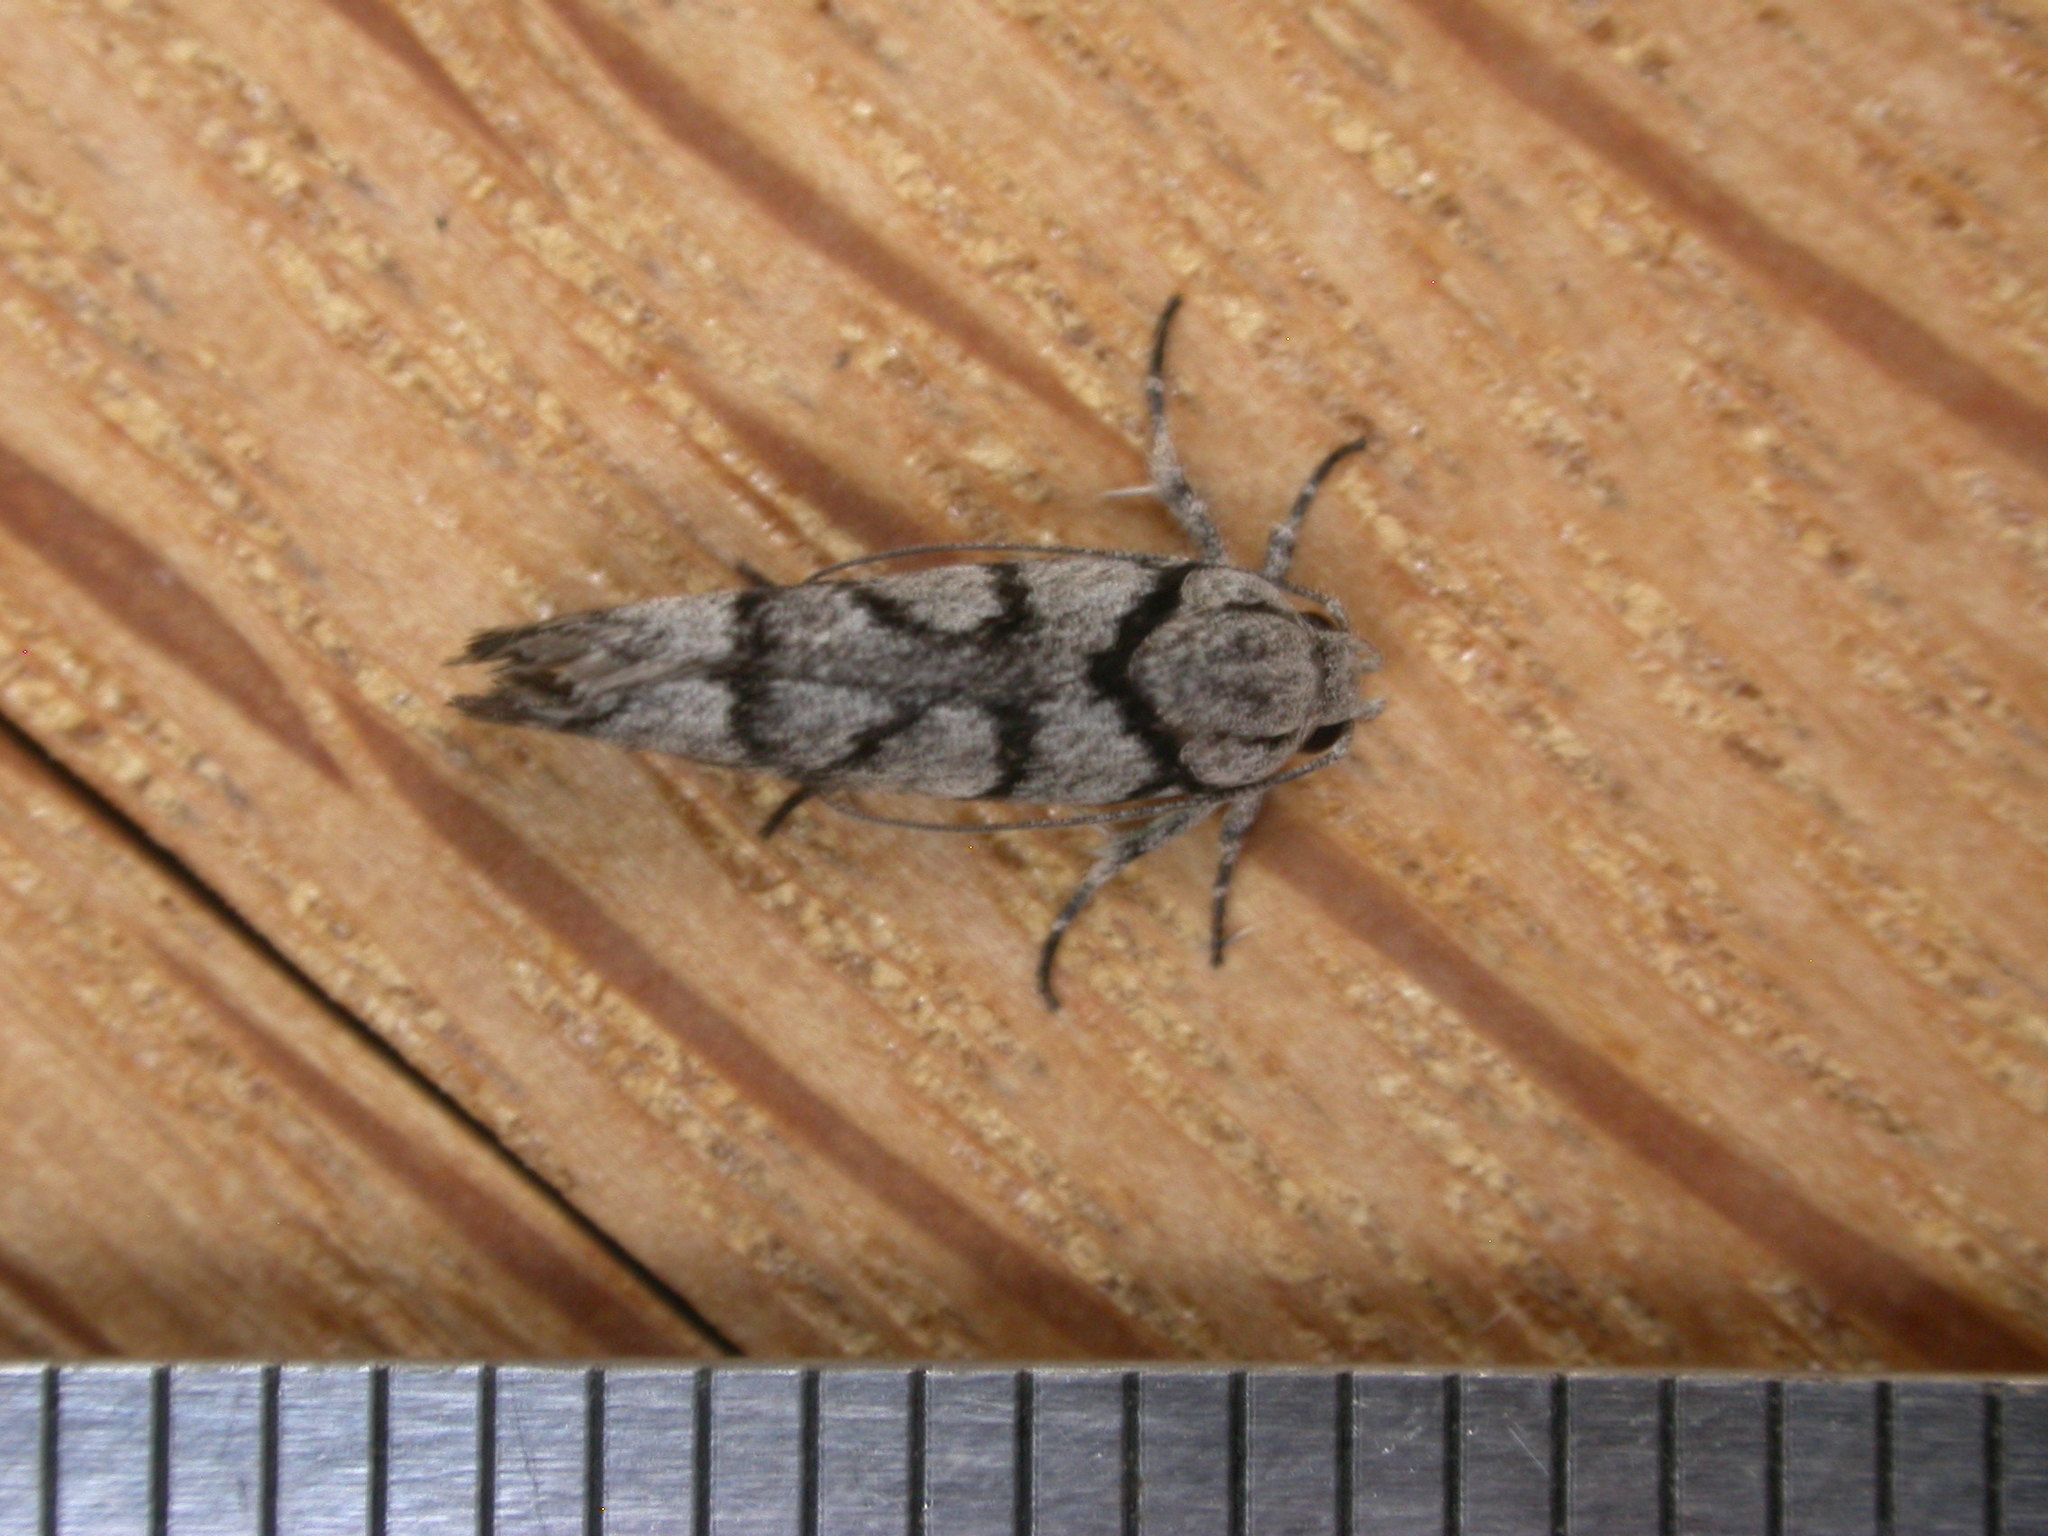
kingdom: Animalia
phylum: Arthropoda
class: Insecta
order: Lepidoptera
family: Xyloryctidae
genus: Lichenaula
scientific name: Lichenaula onychodes
